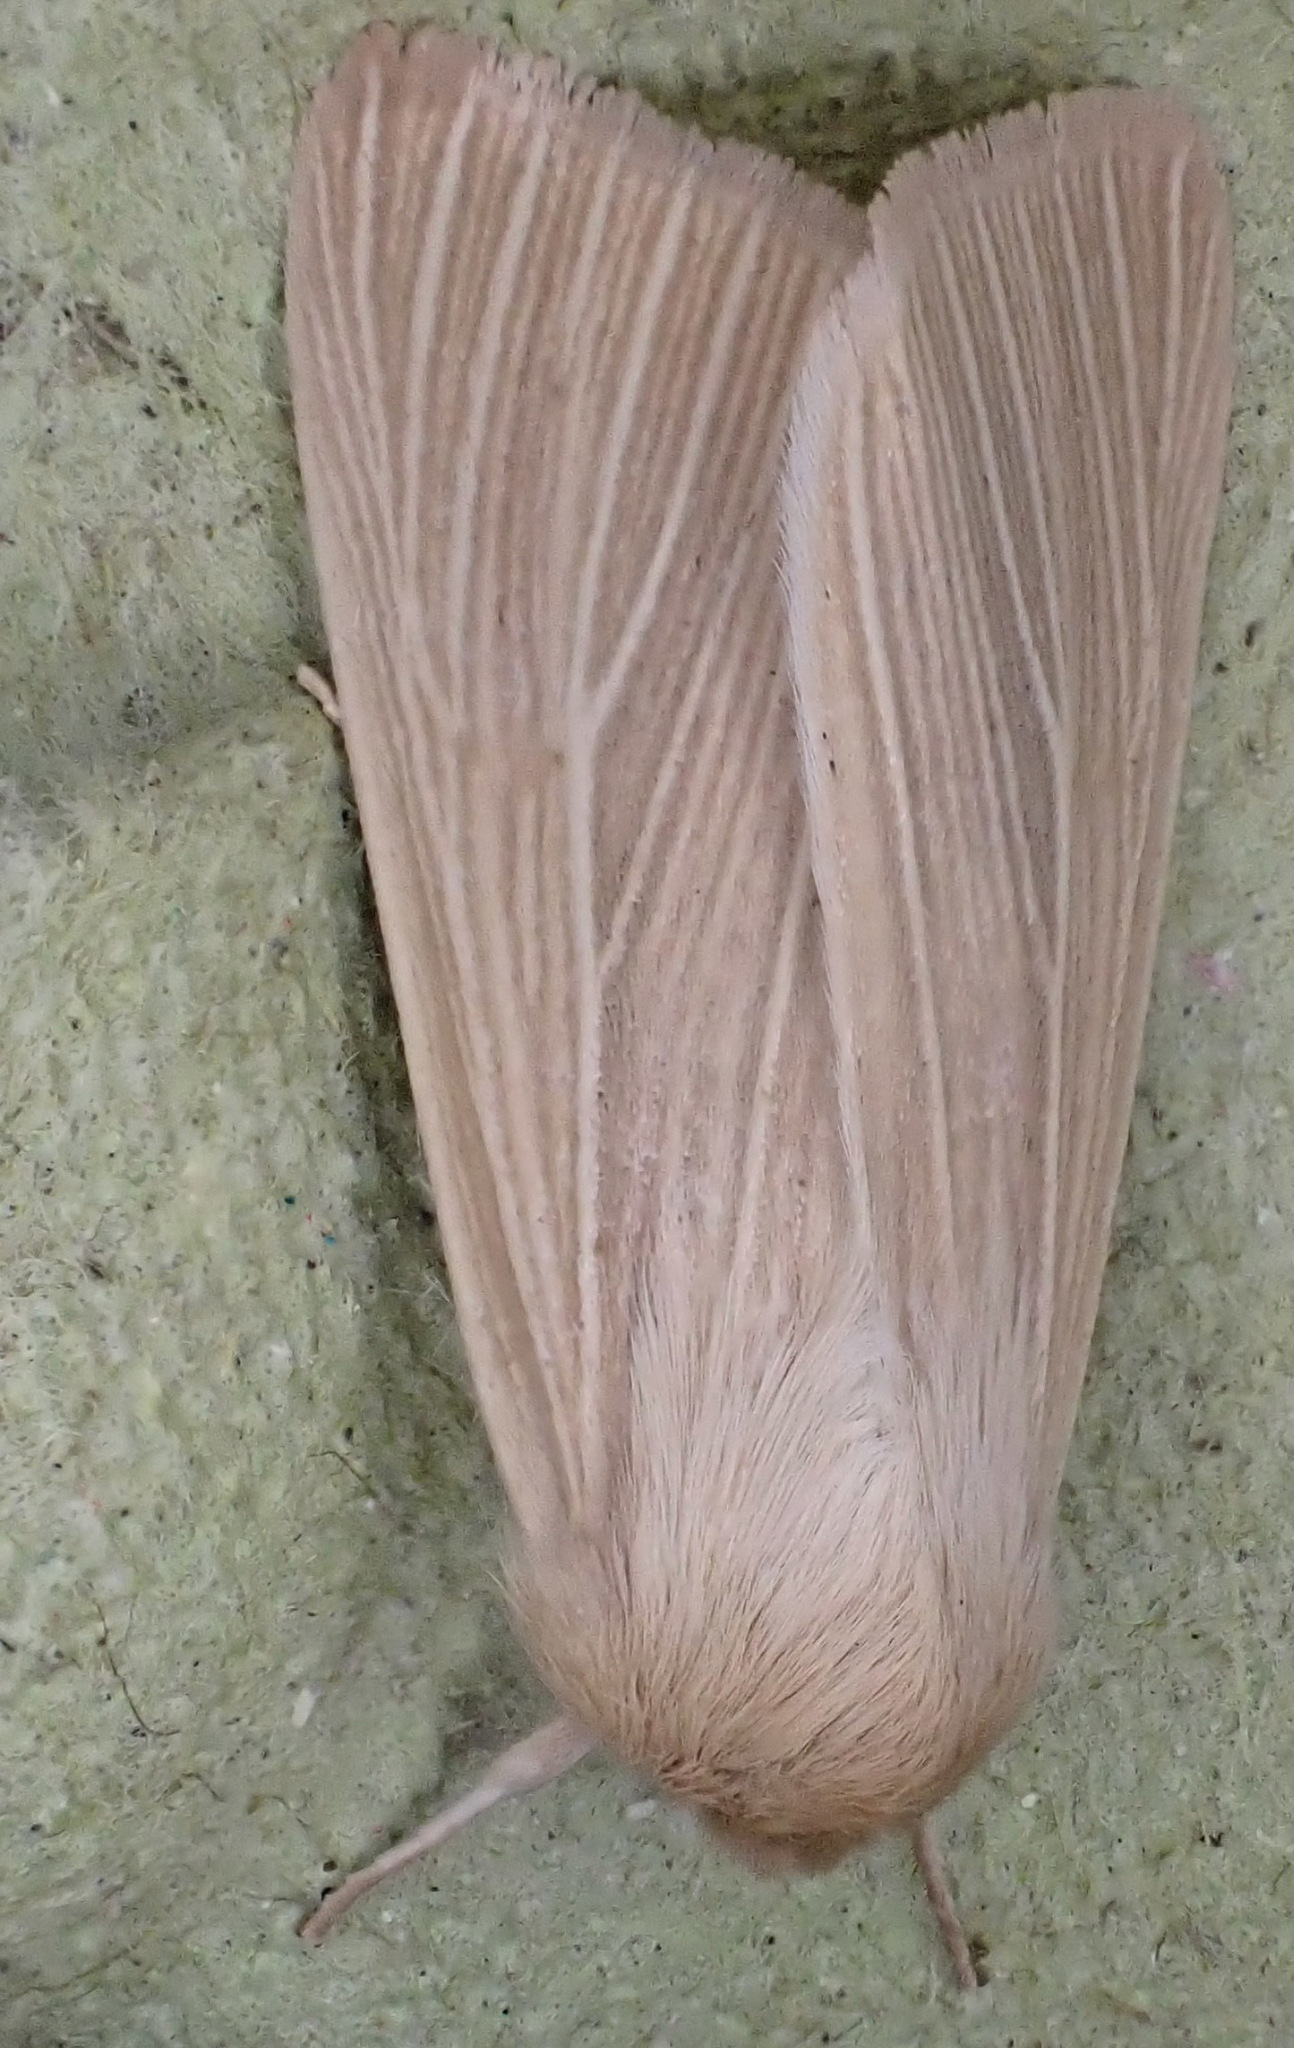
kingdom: Animalia
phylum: Arthropoda
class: Insecta
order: Lepidoptera
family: Noctuidae
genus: Mythimna
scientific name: Mythimna pallens
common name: Common wainscot
